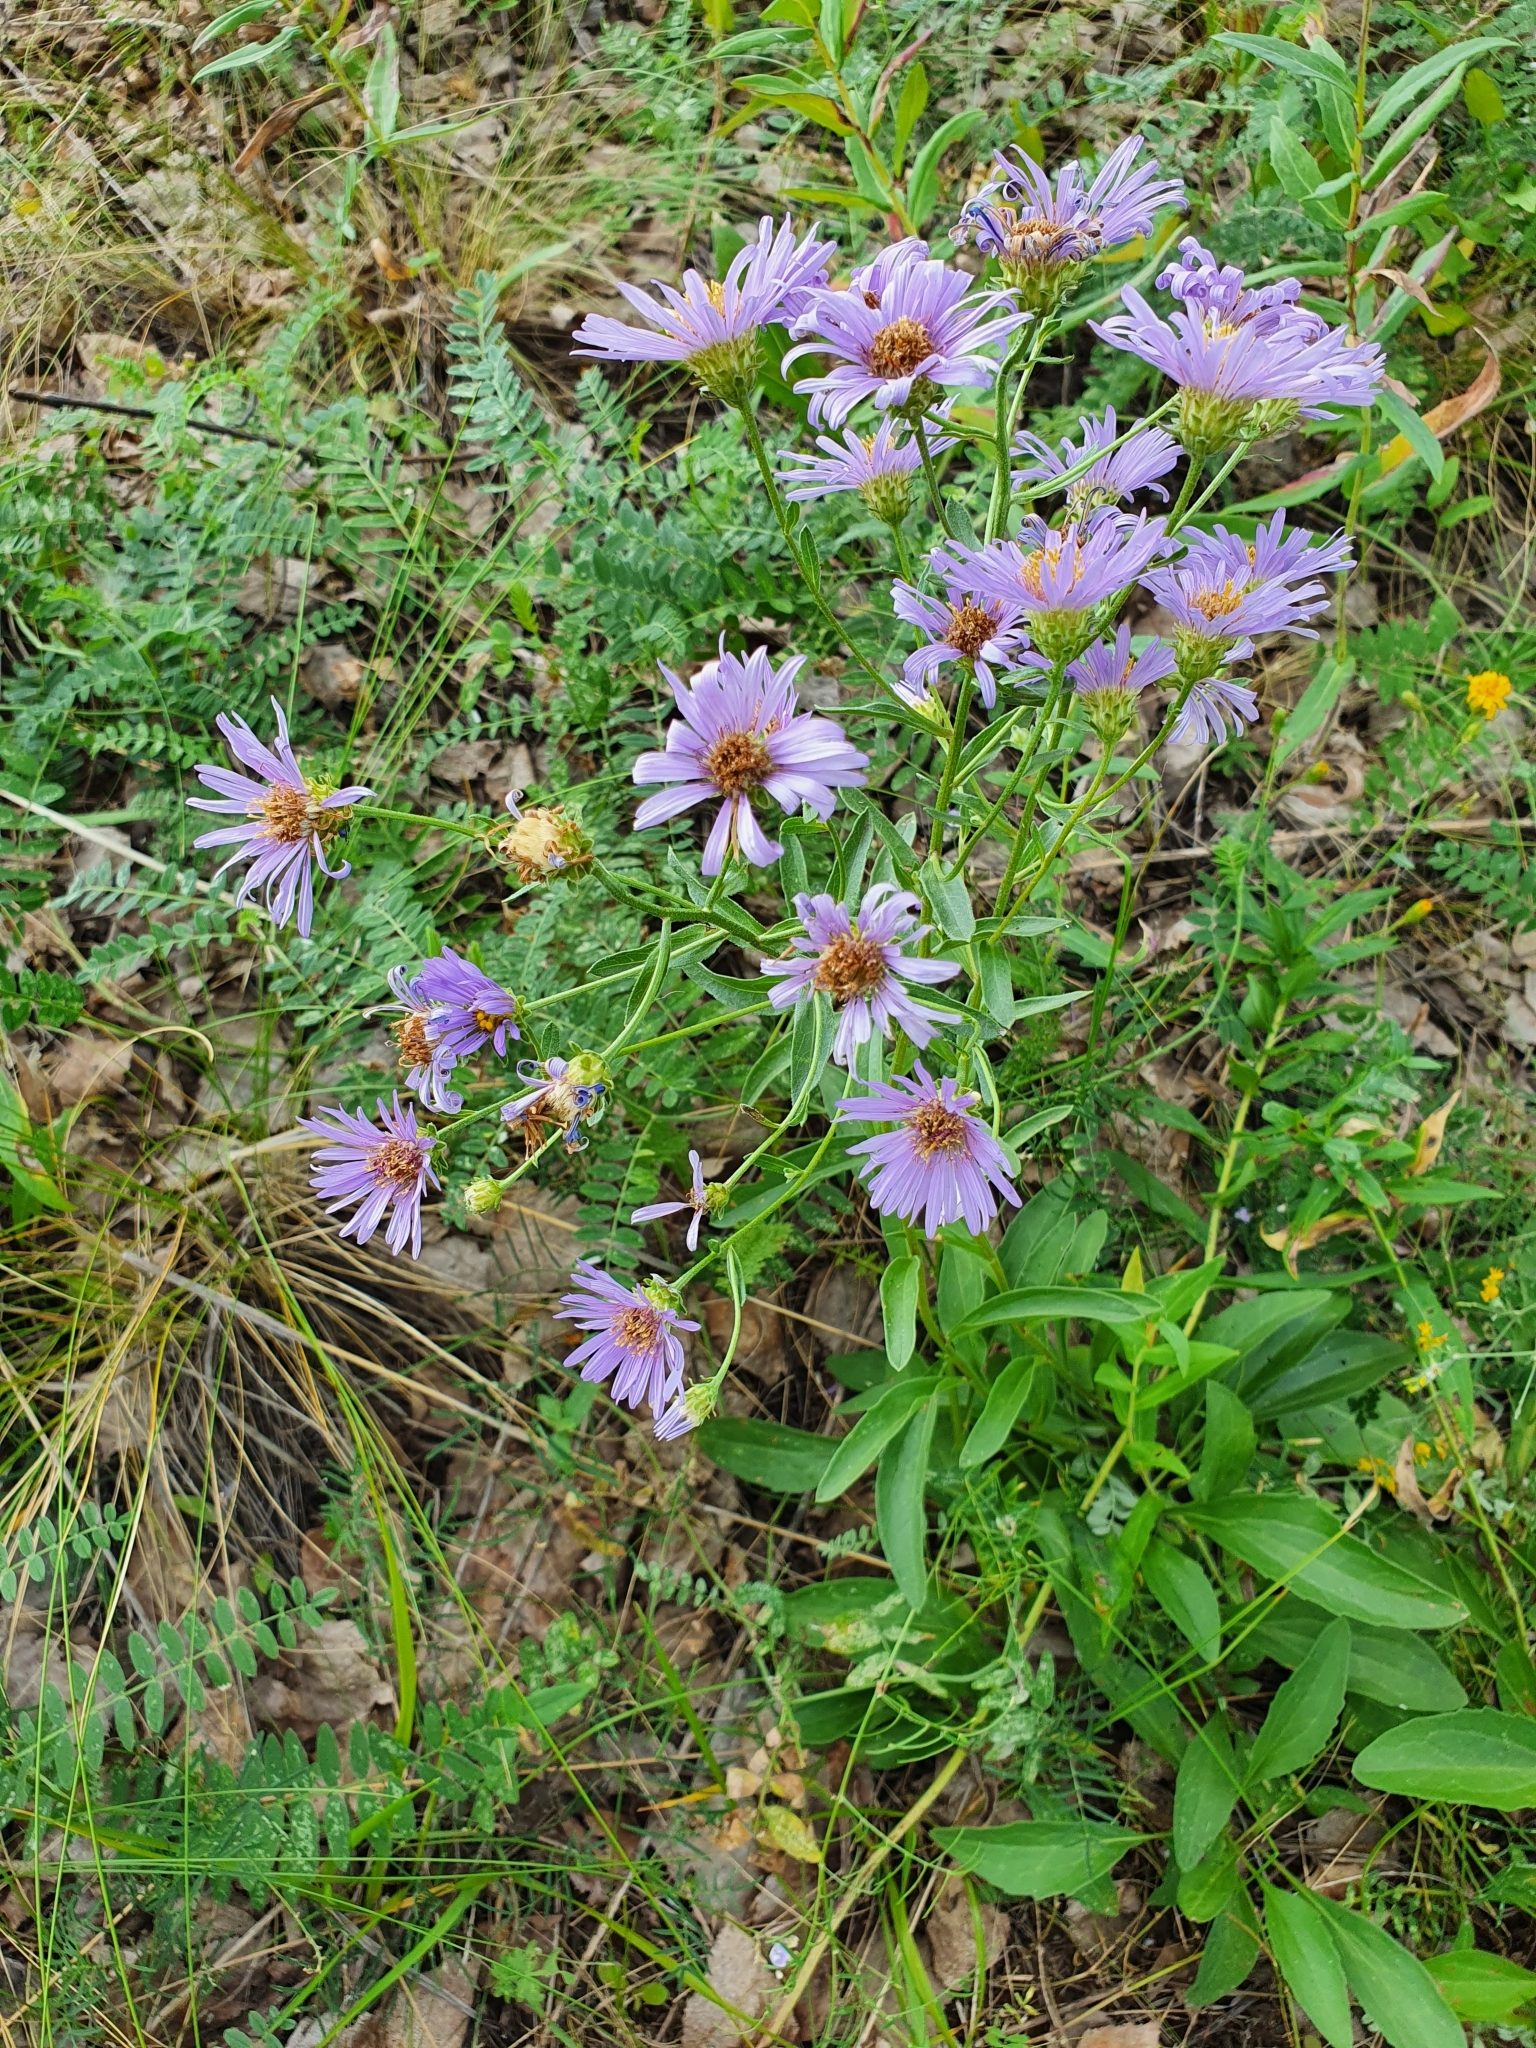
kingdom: Plantae
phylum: Tracheophyta
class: Magnoliopsida
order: Asterales
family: Asteraceae
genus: Aster
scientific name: Aster amellus
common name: European michaelmas daisy
